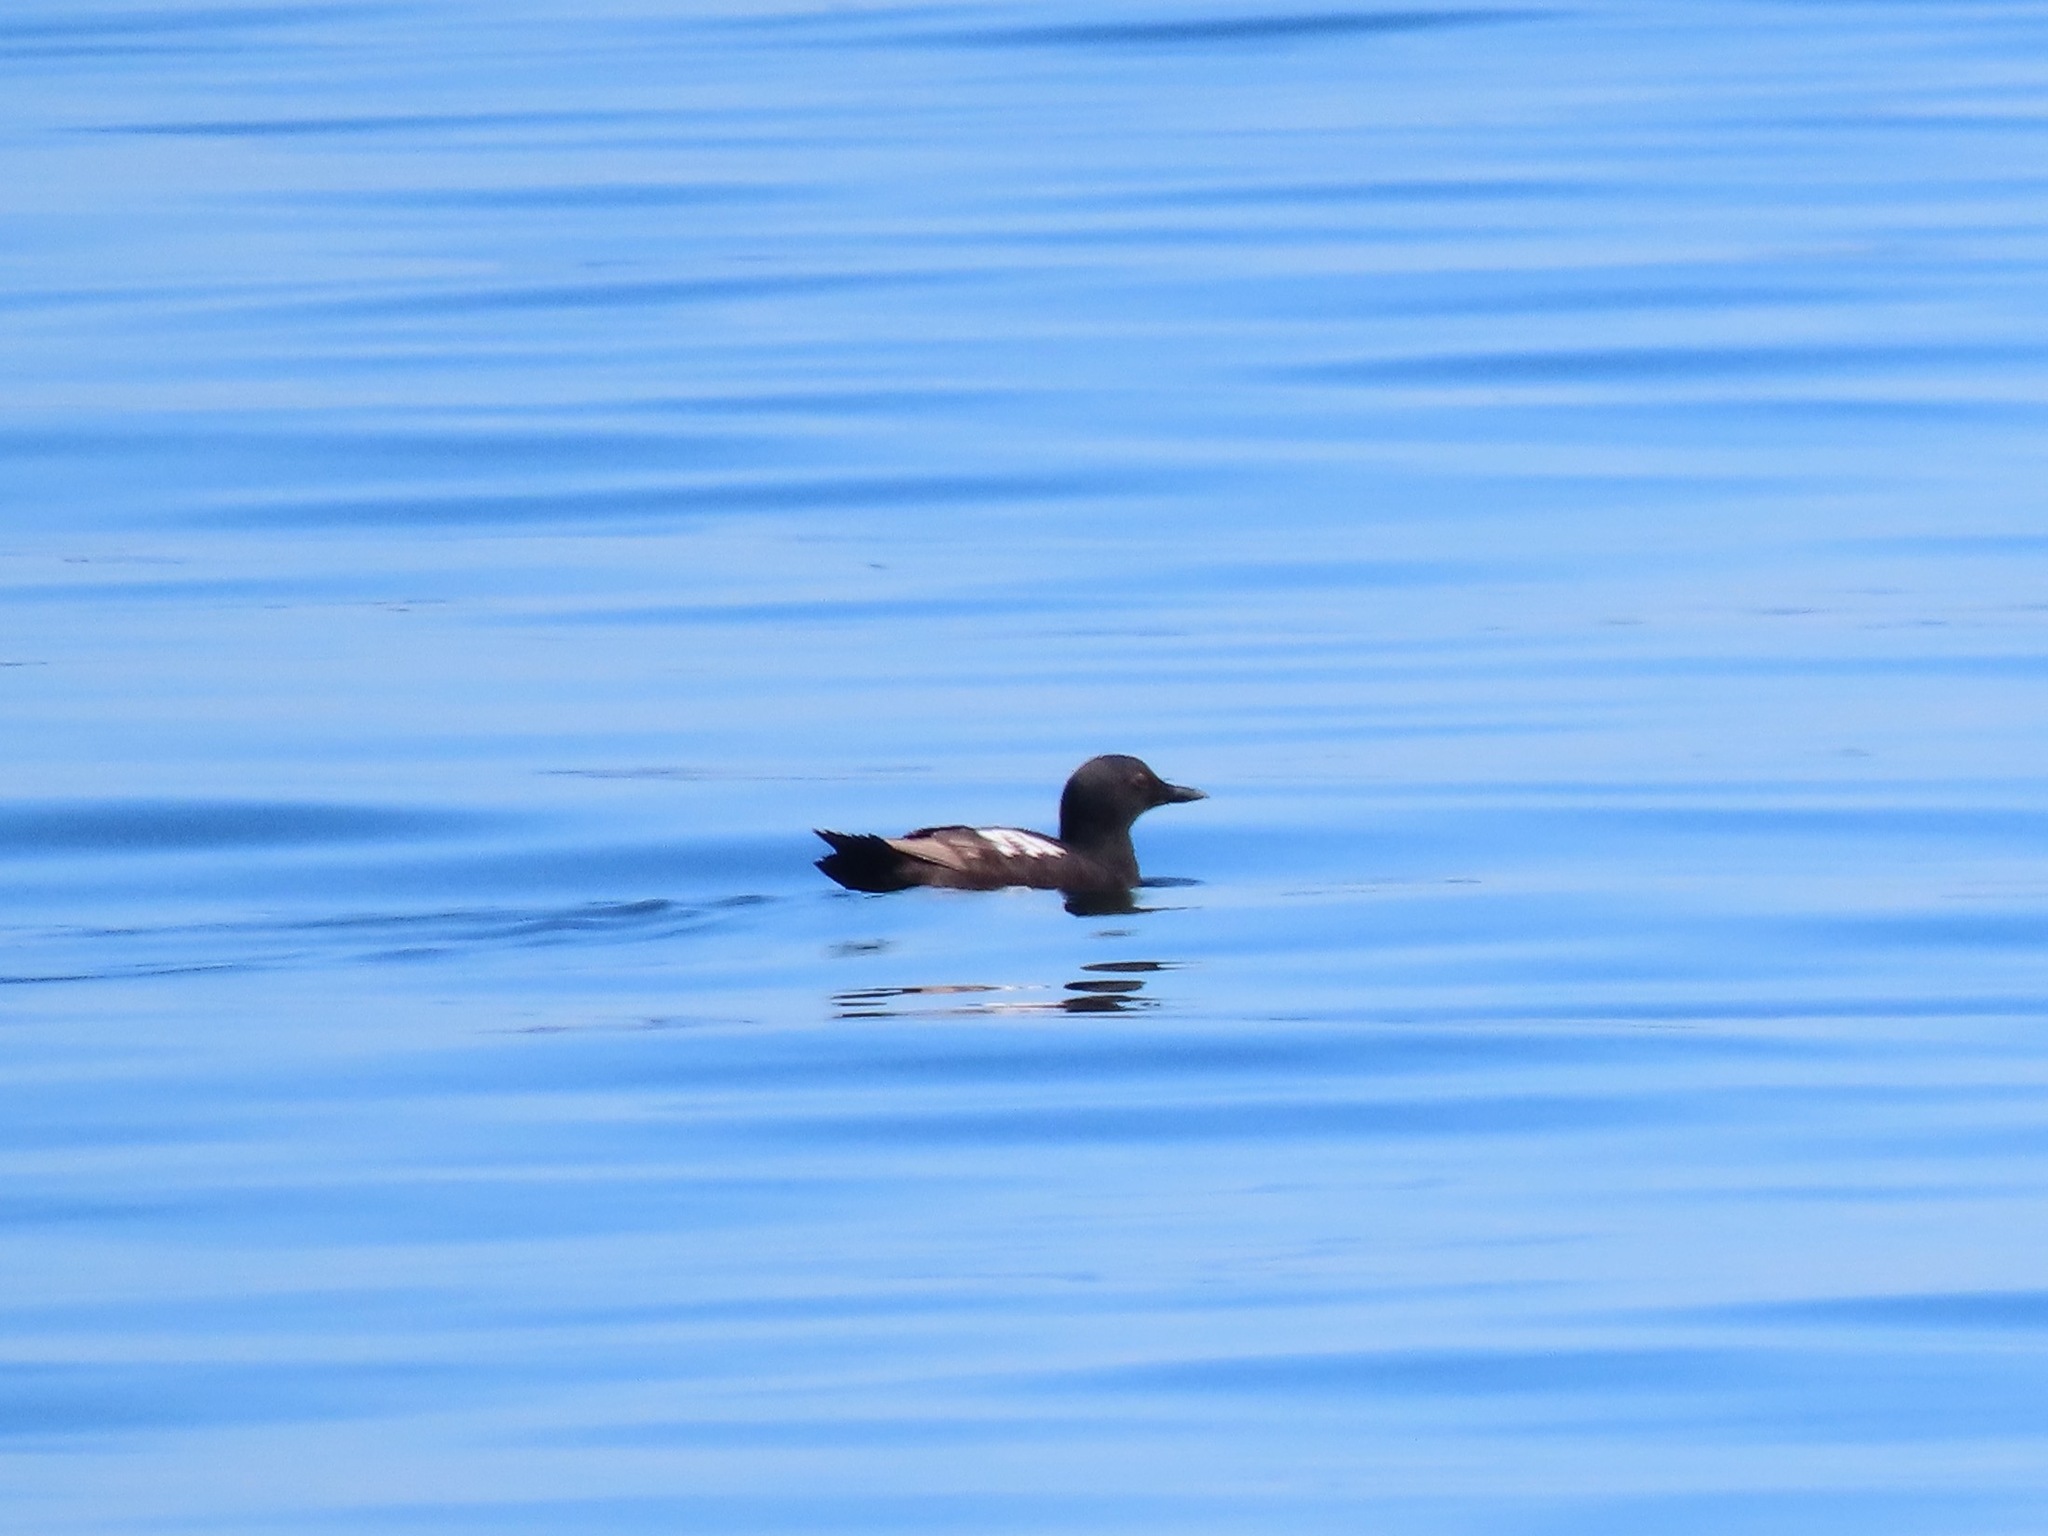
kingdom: Animalia
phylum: Chordata
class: Aves
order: Charadriiformes
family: Alcidae
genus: Cepphus
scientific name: Cepphus columba
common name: Pigeon guillemot
